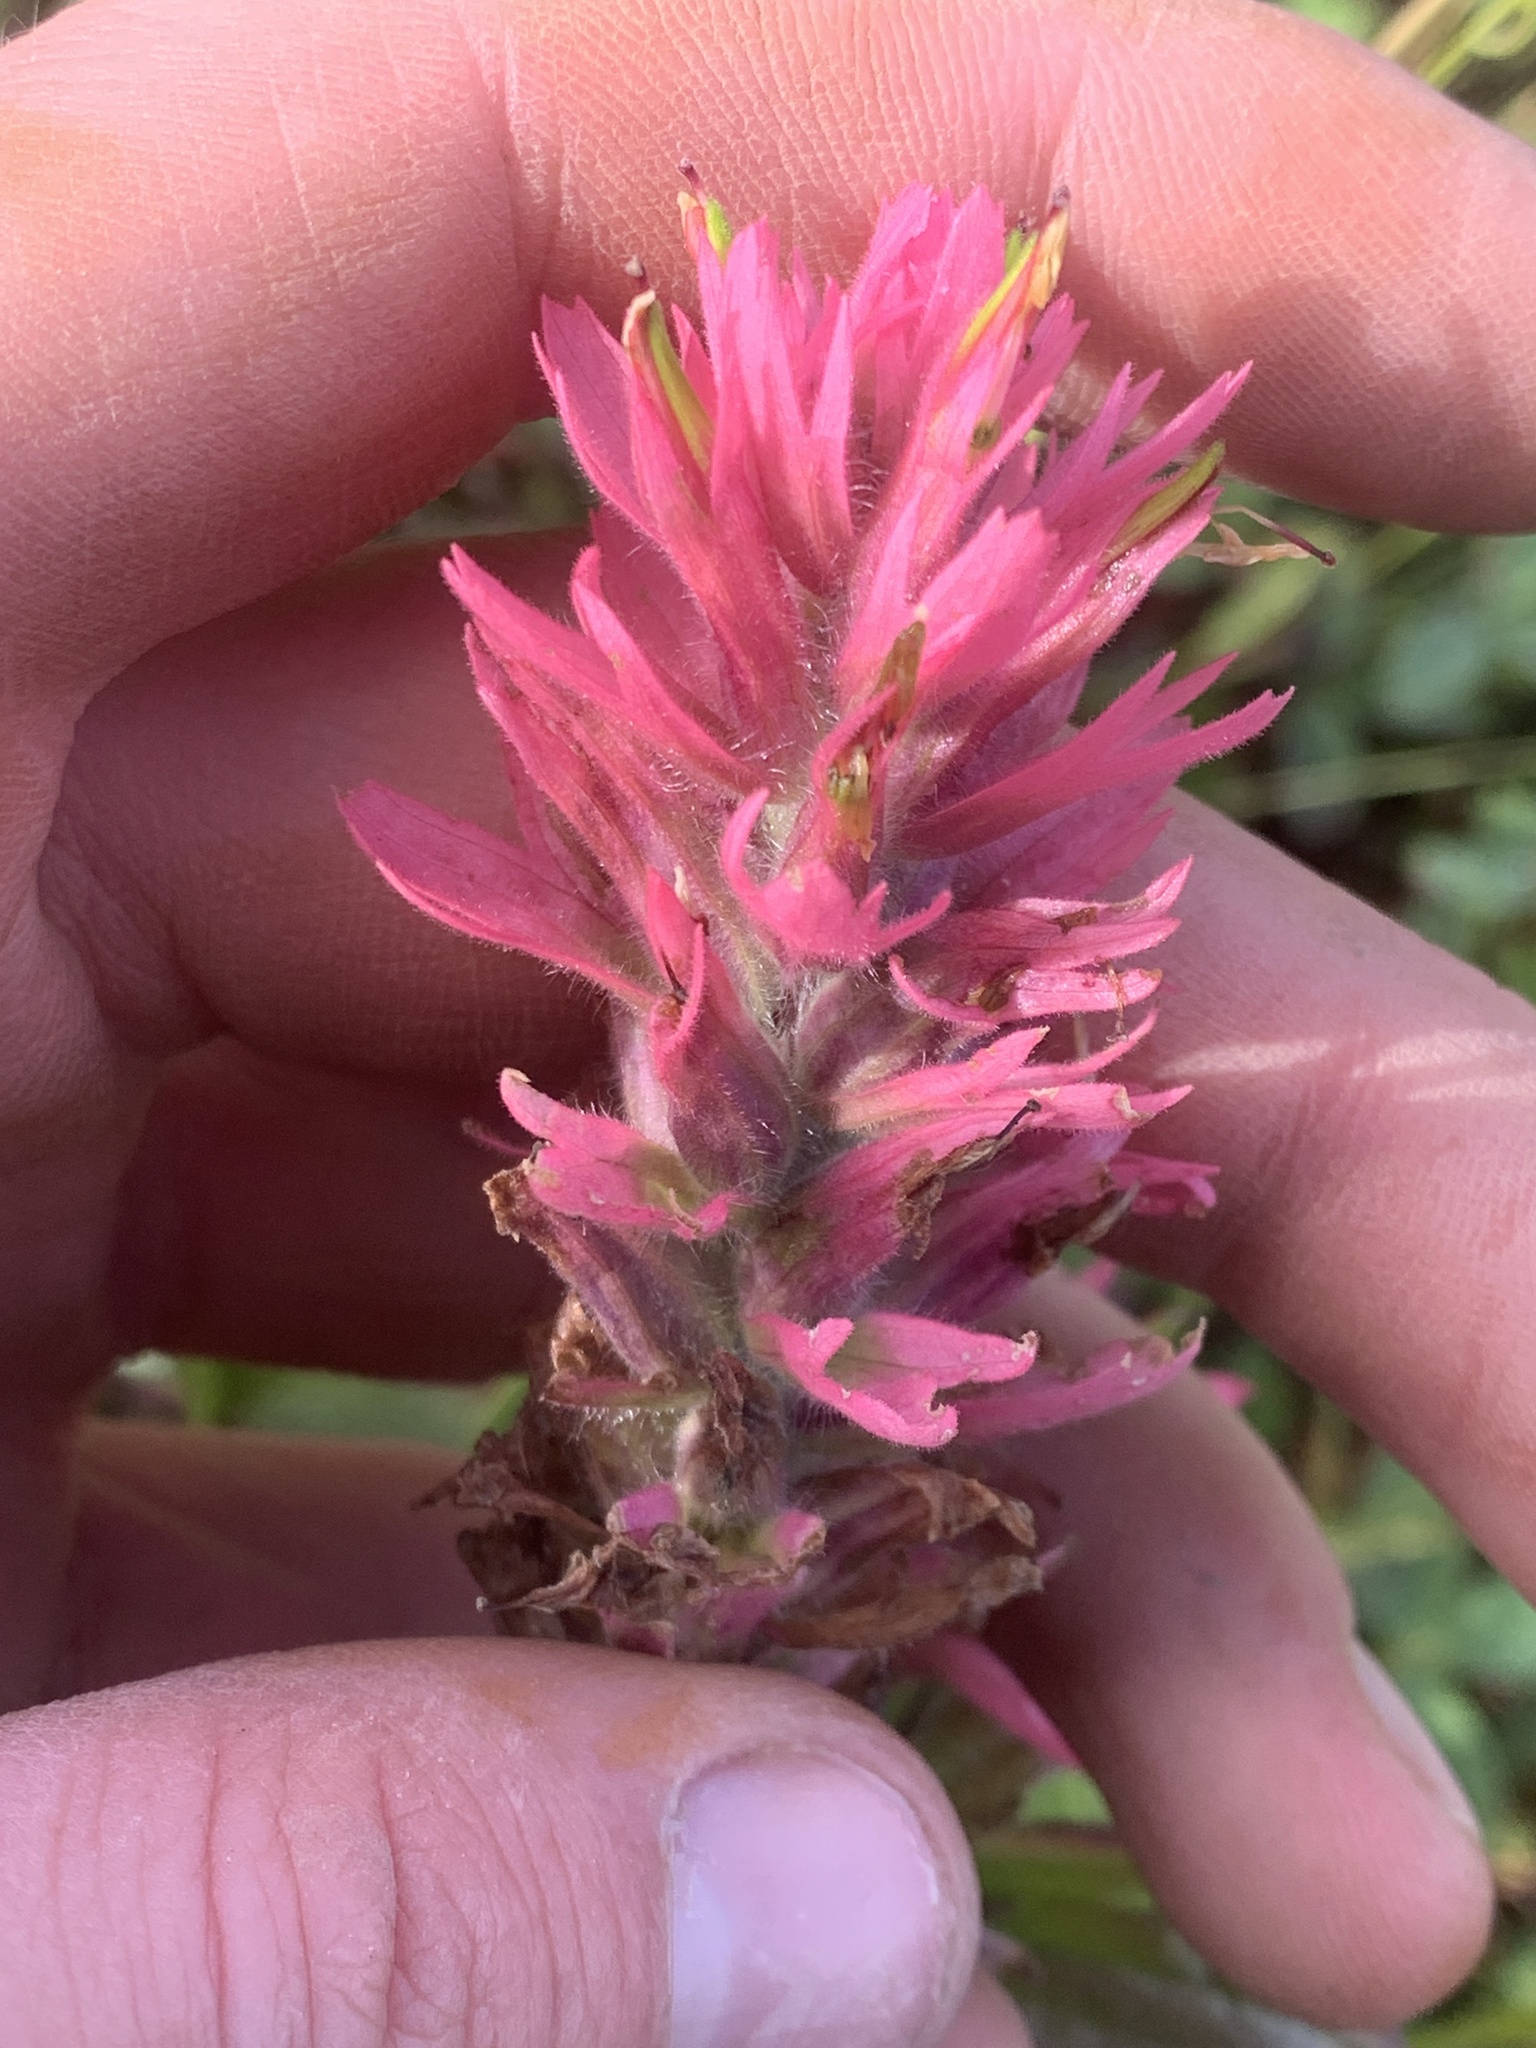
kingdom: Plantae
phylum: Tracheophyta
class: Magnoliopsida
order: Lamiales
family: Orobanchaceae
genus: Castilleja
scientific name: Castilleja miniata
